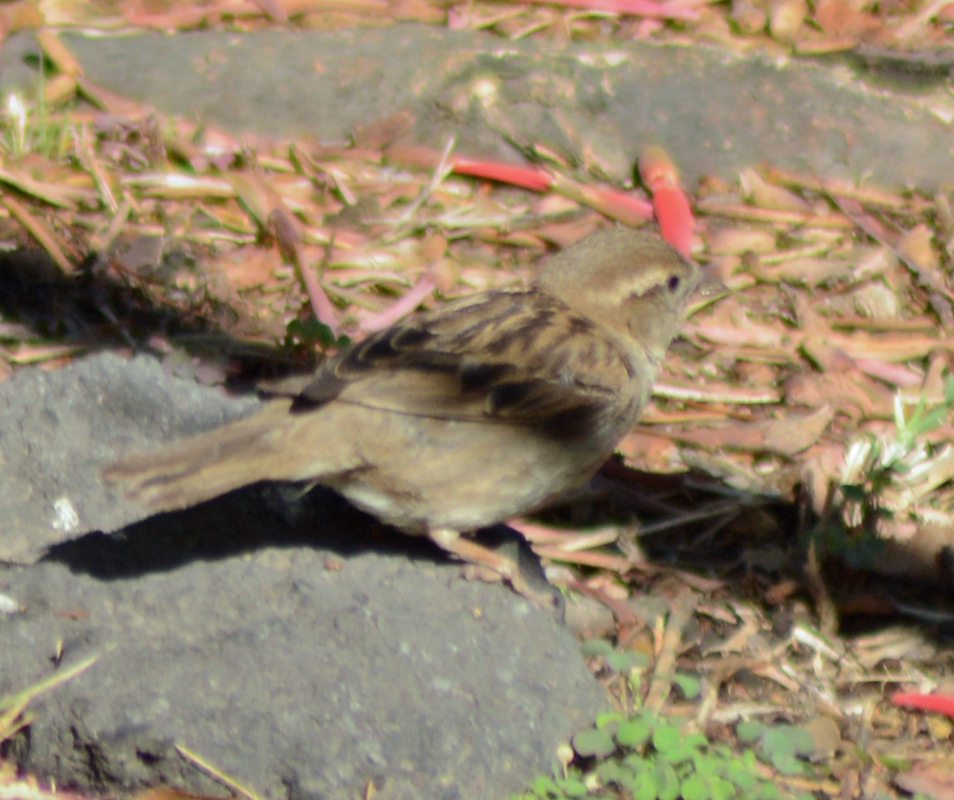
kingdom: Animalia
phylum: Chordata
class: Aves
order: Passeriformes
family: Passeridae
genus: Passer
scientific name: Passer domesticus
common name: House sparrow
